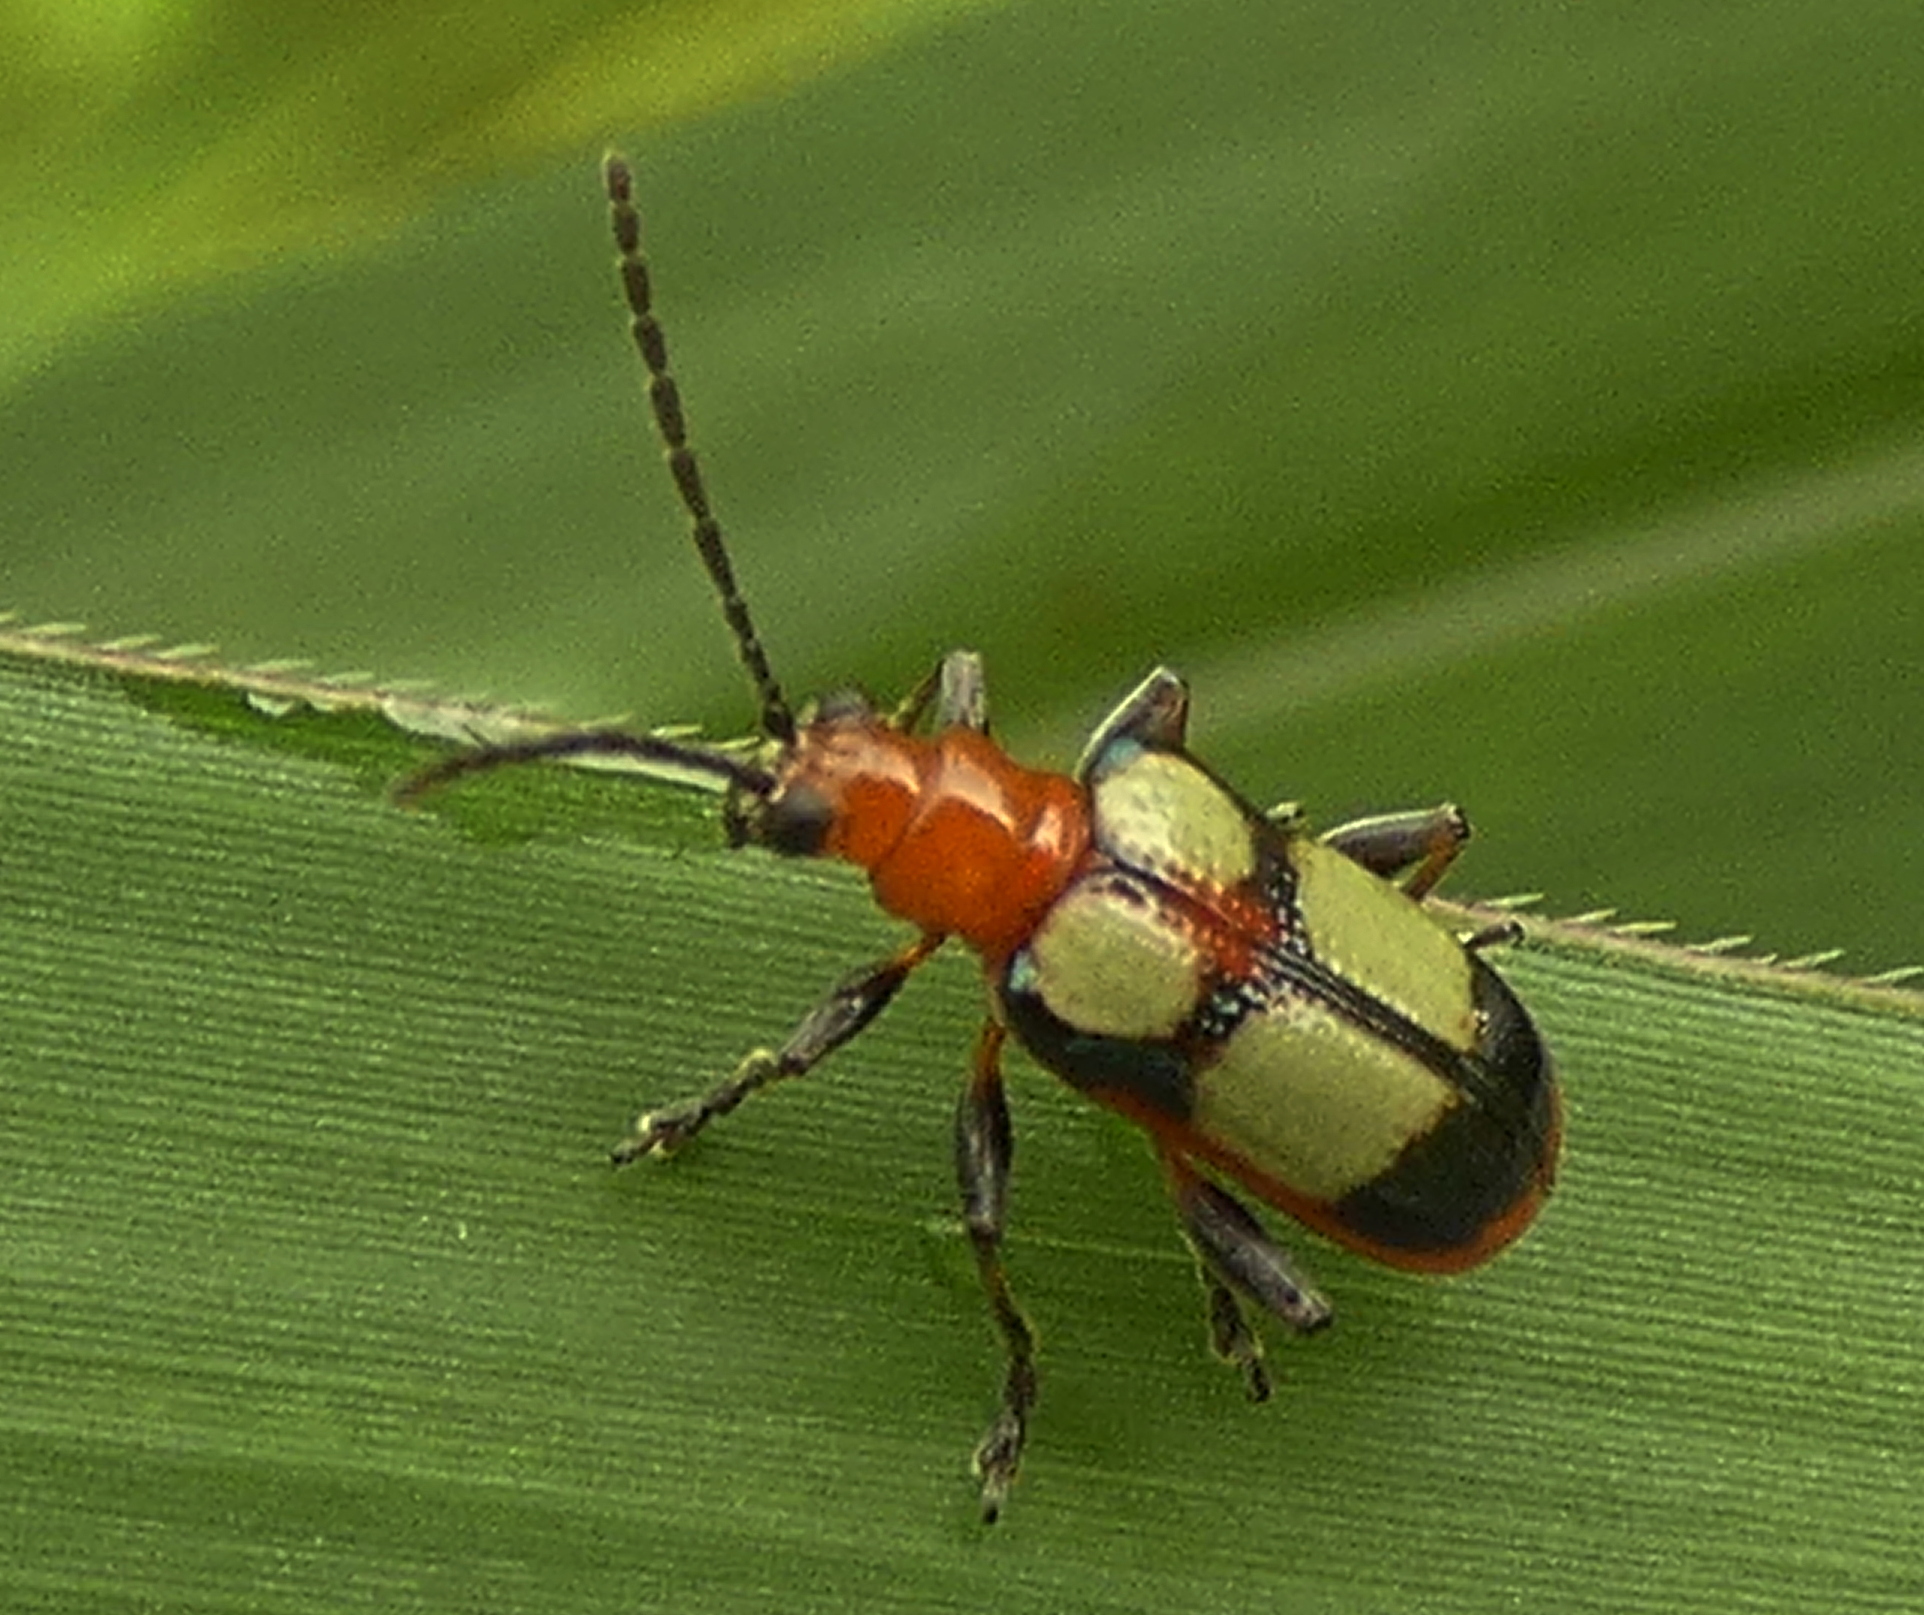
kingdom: Animalia
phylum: Arthropoda
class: Insecta
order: Coleoptera
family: Chrysomelidae
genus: Neolema
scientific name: Neolema
